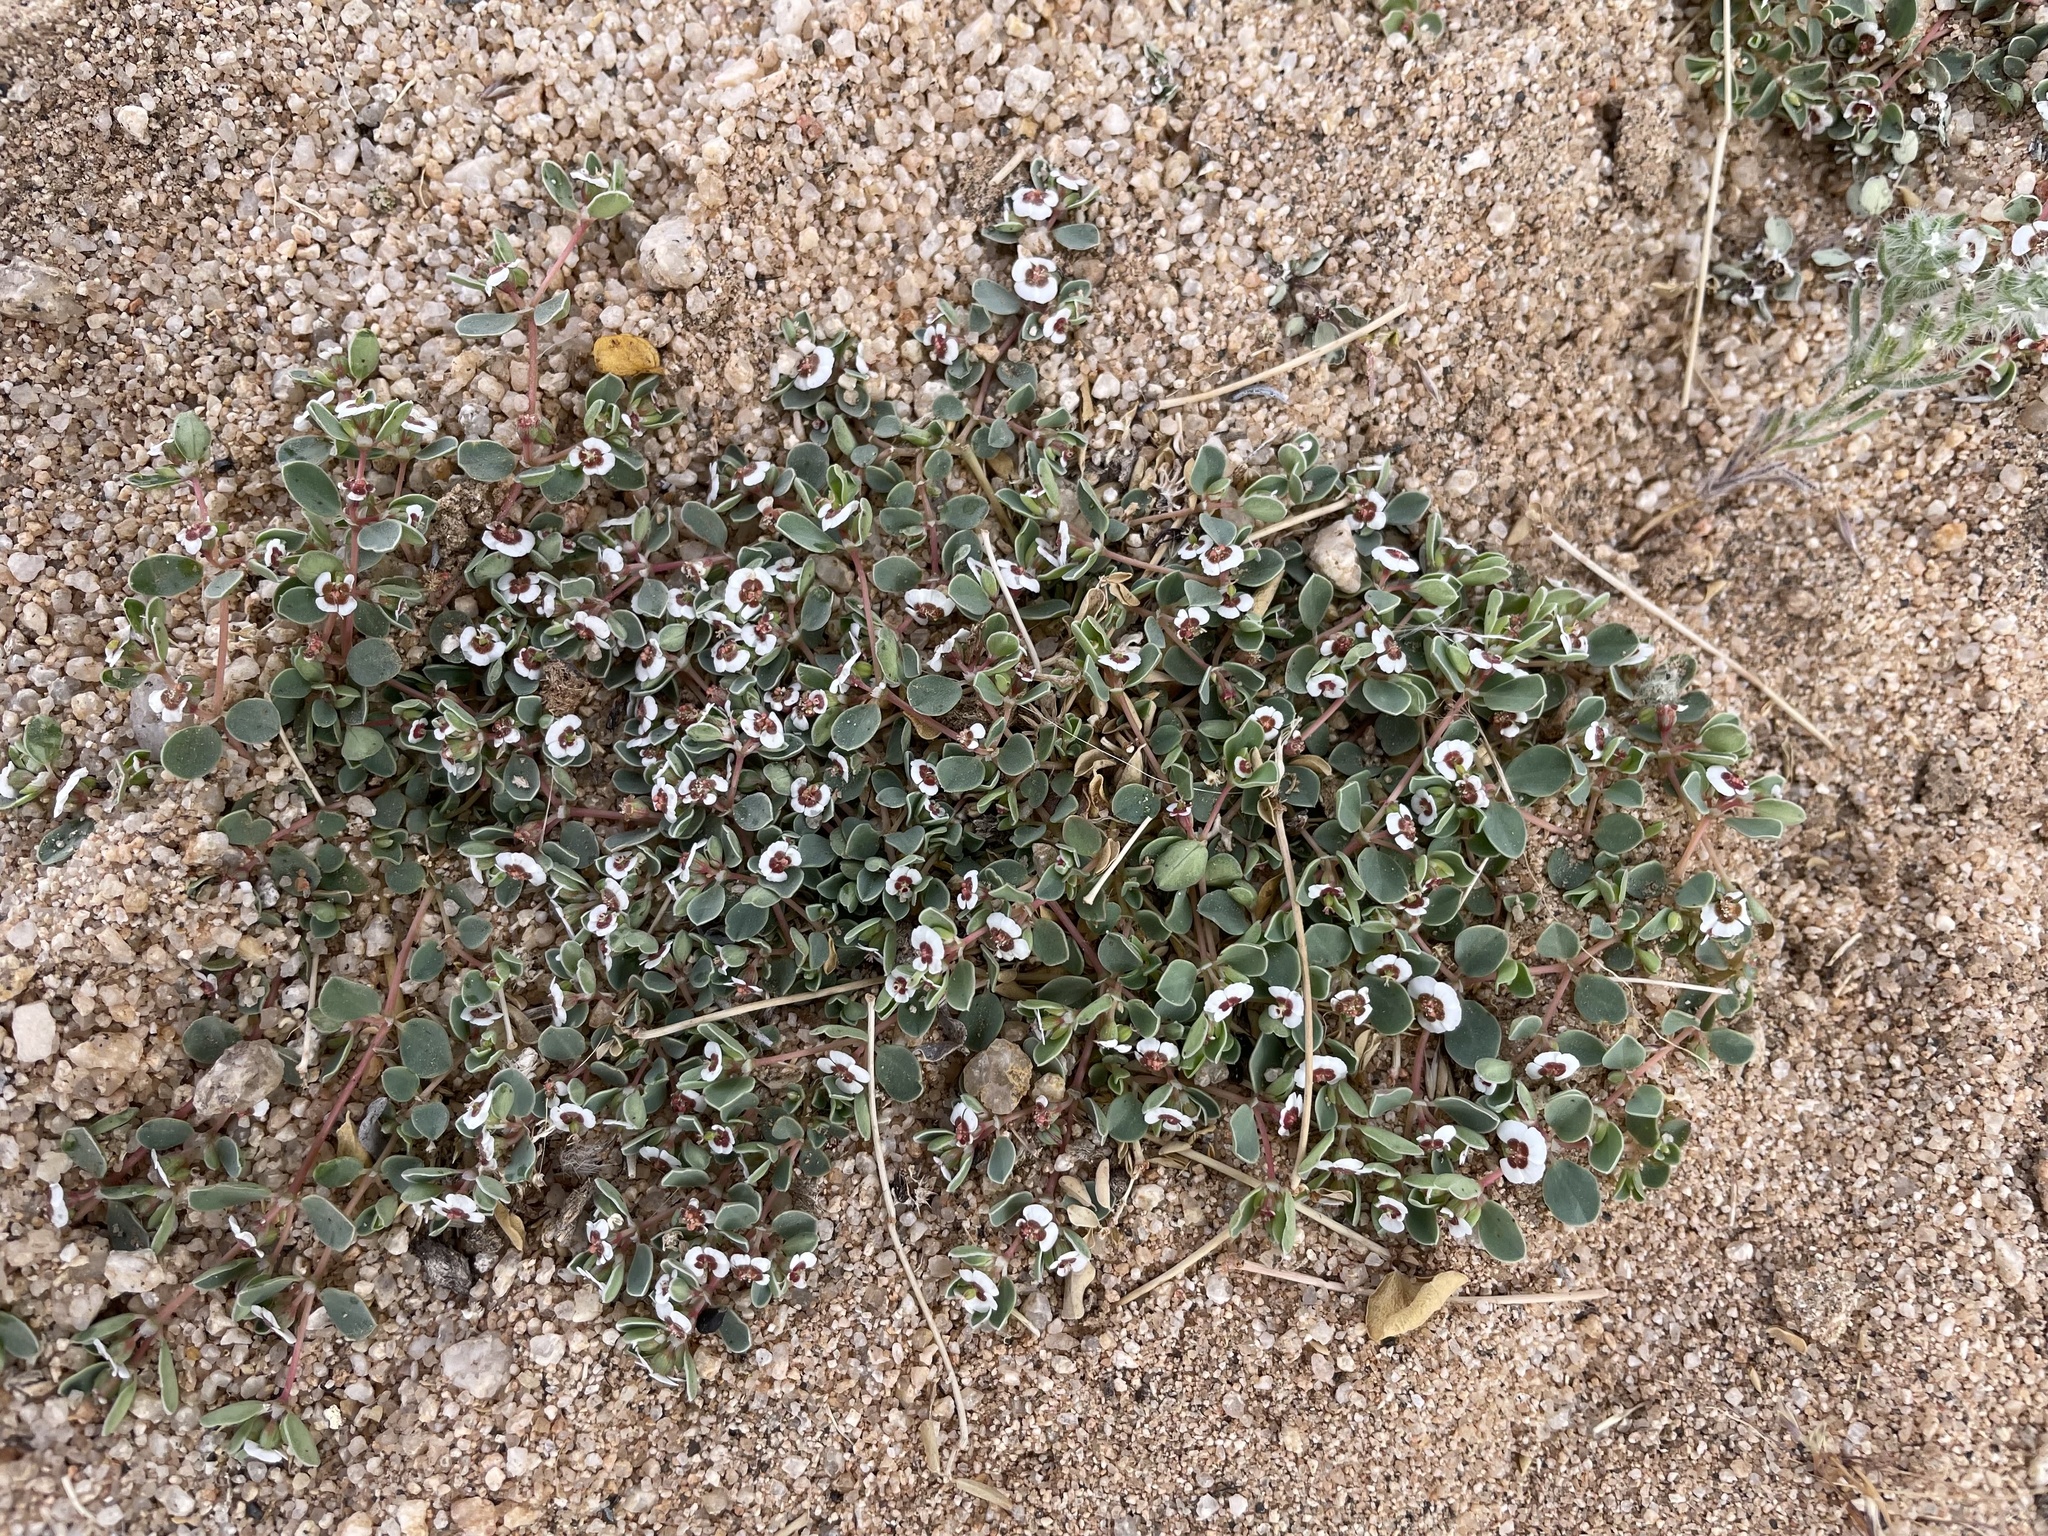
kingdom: Plantae
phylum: Tracheophyta
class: Magnoliopsida
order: Malpighiales
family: Euphorbiaceae
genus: Euphorbia
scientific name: Euphorbia albomarginata
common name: Whitemargin sandmat
